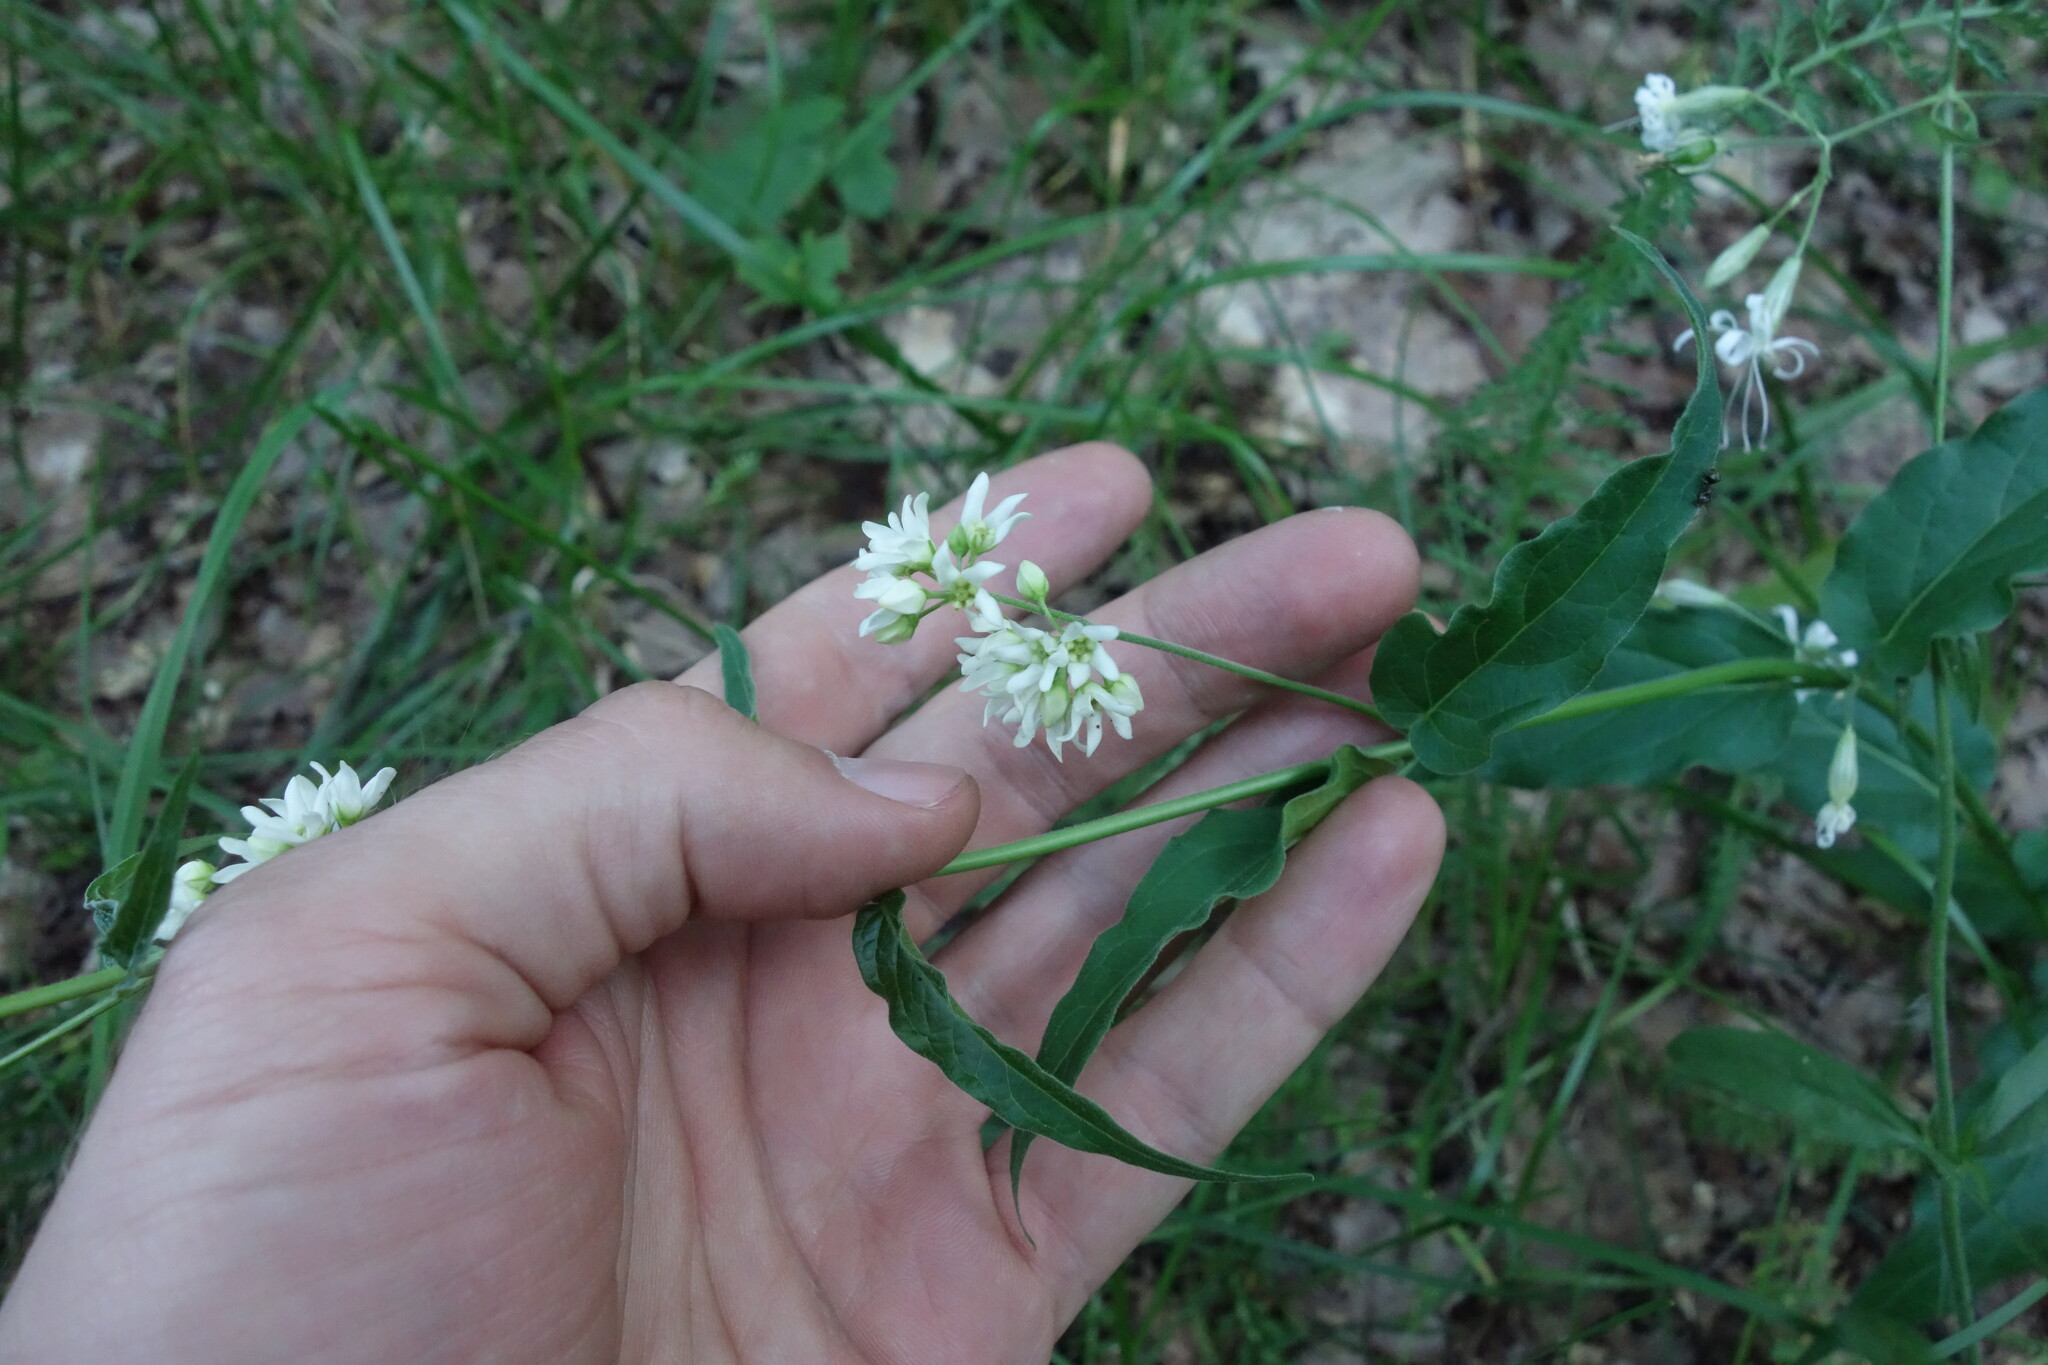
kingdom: Plantae
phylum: Tracheophyta
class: Magnoliopsida
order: Gentianales
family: Apocynaceae
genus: Vincetoxicum
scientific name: Vincetoxicum hirundinaria
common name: White swallowwort
